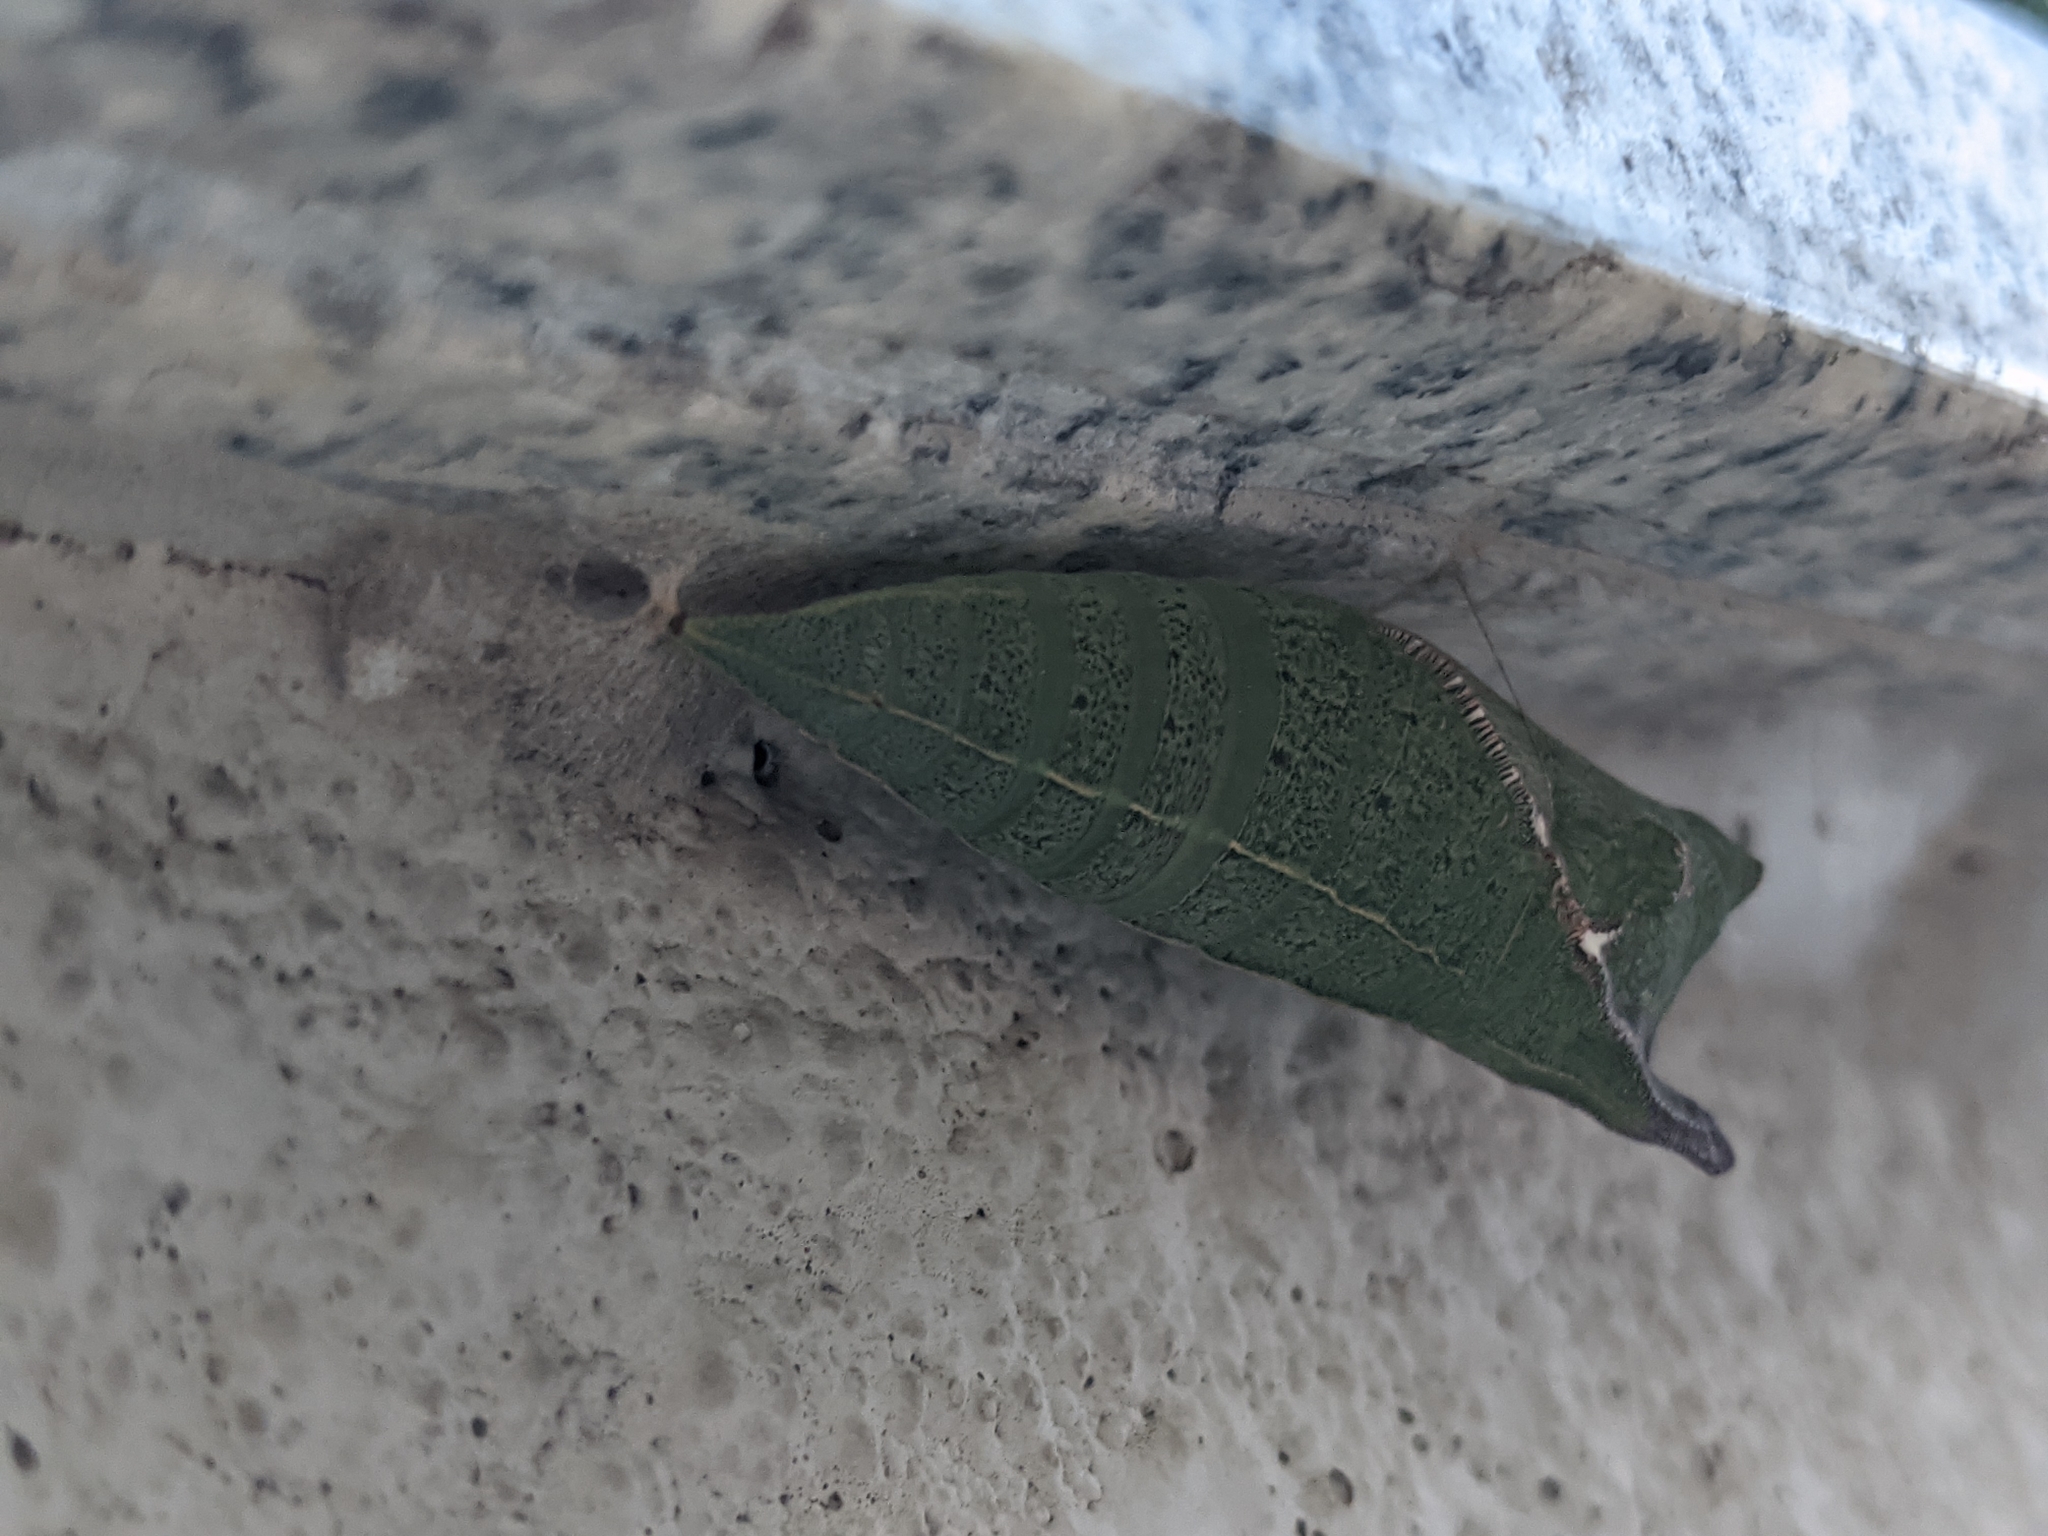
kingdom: Animalia
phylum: Arthropoda
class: Insecta
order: Lepidoptera
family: Papilionidae
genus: Graphium
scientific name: Graphium agamemnon
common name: Tailed jay
